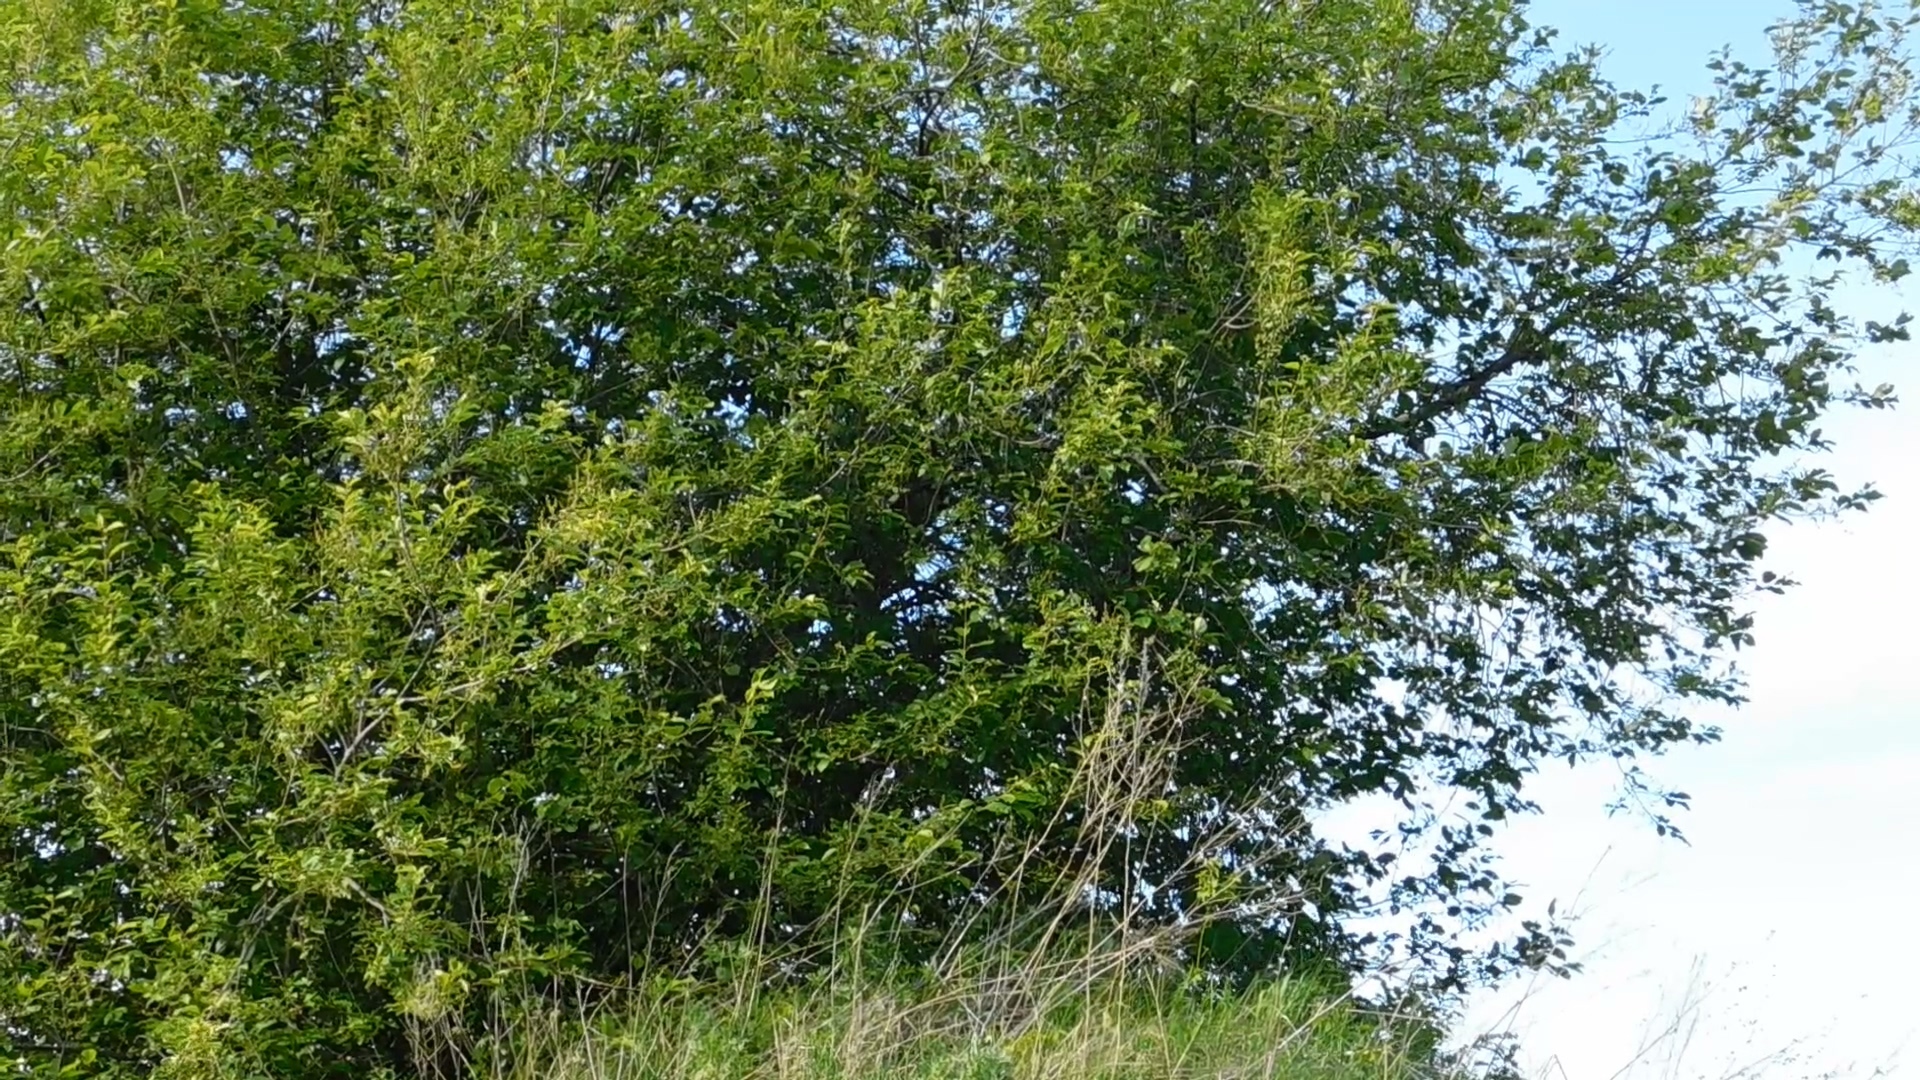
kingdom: Animalia
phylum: Chordata
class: Aves
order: Passeriformes
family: Sylviidae
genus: Sylvia
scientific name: Sylvia communis
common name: Common whitethroat
